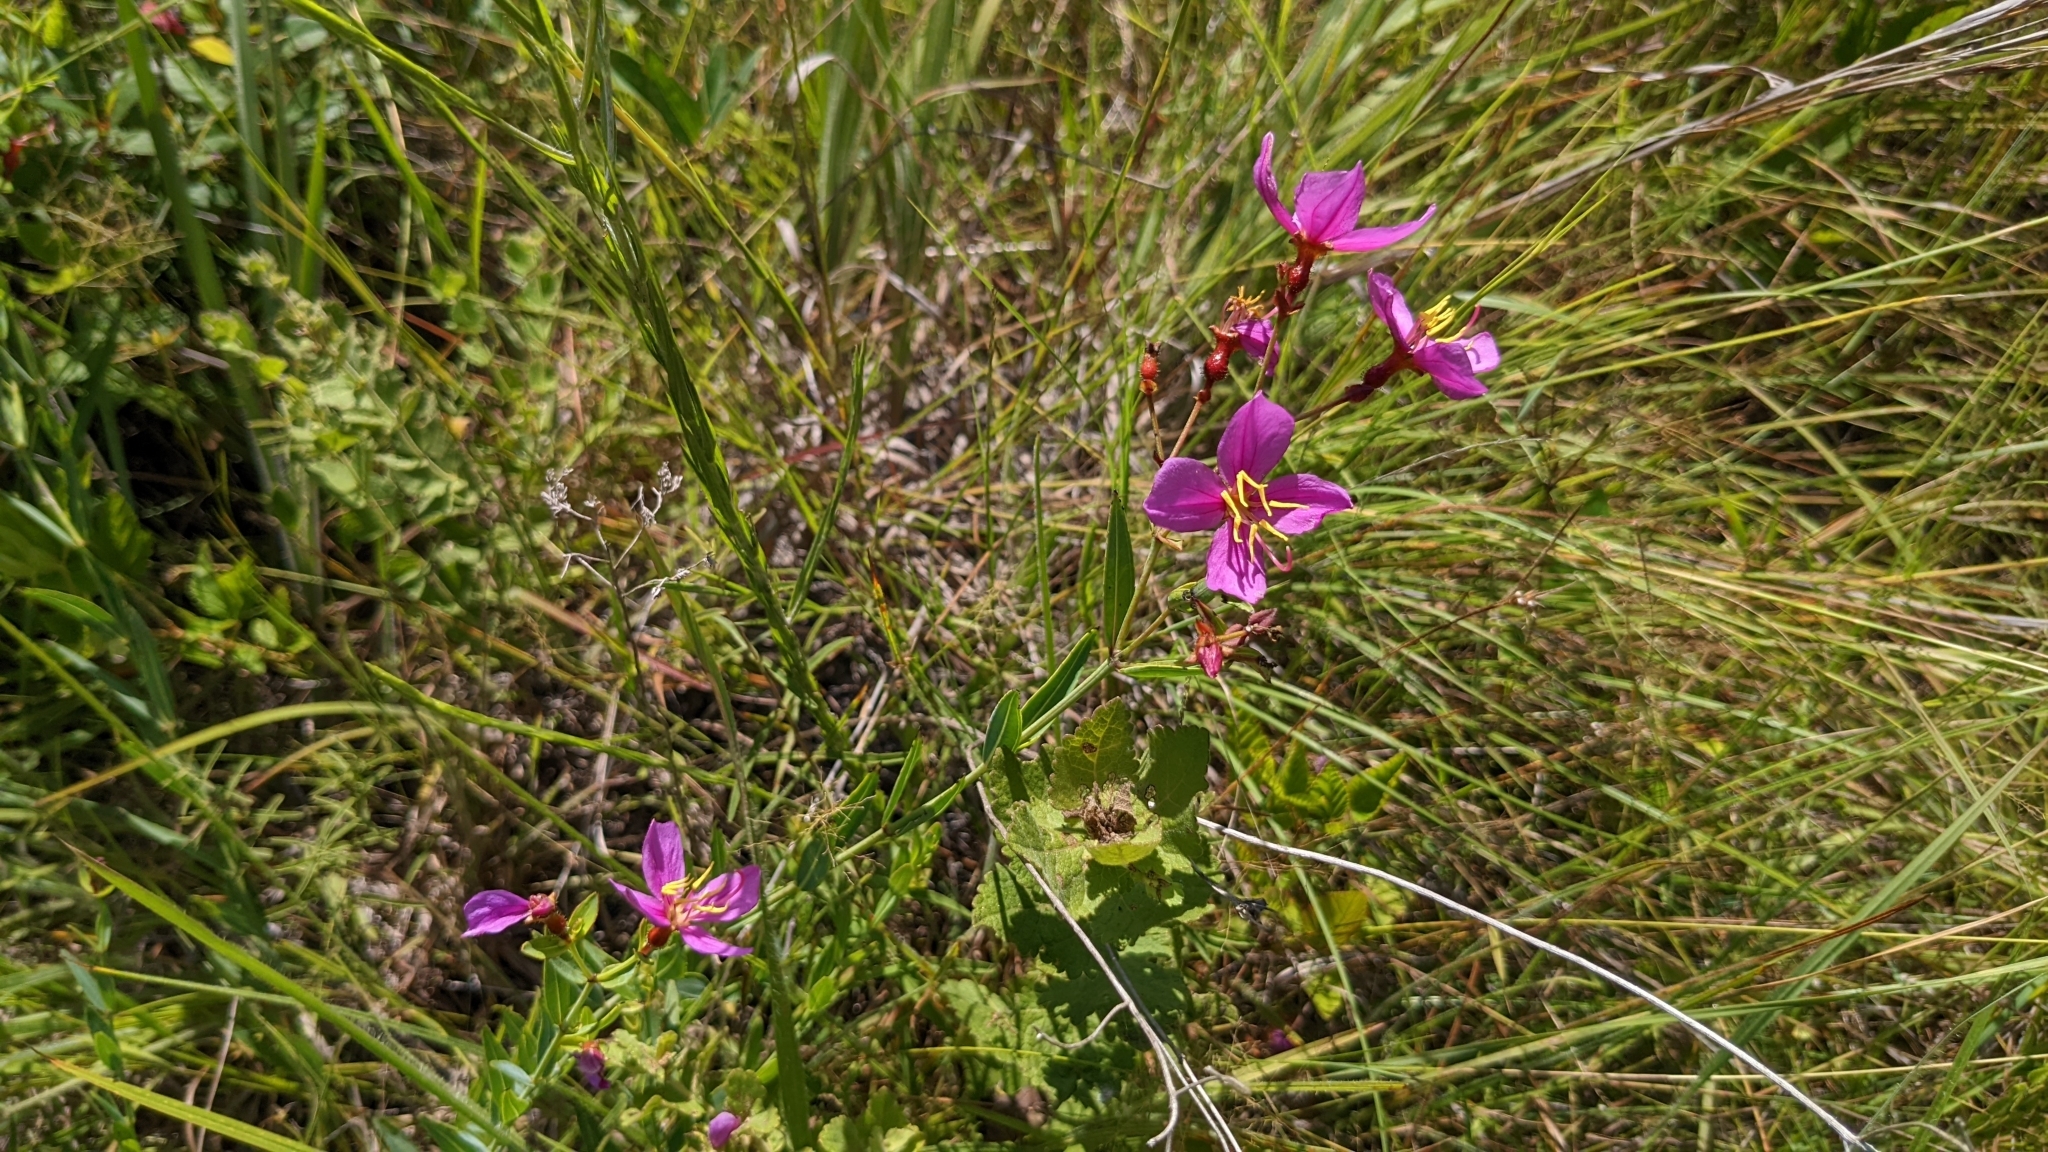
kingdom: Plantae
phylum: Tracheophyta
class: Magnoliopsida
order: Myrtales
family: Melastomataceae
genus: Rhexia
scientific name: Rhexia alifanus
